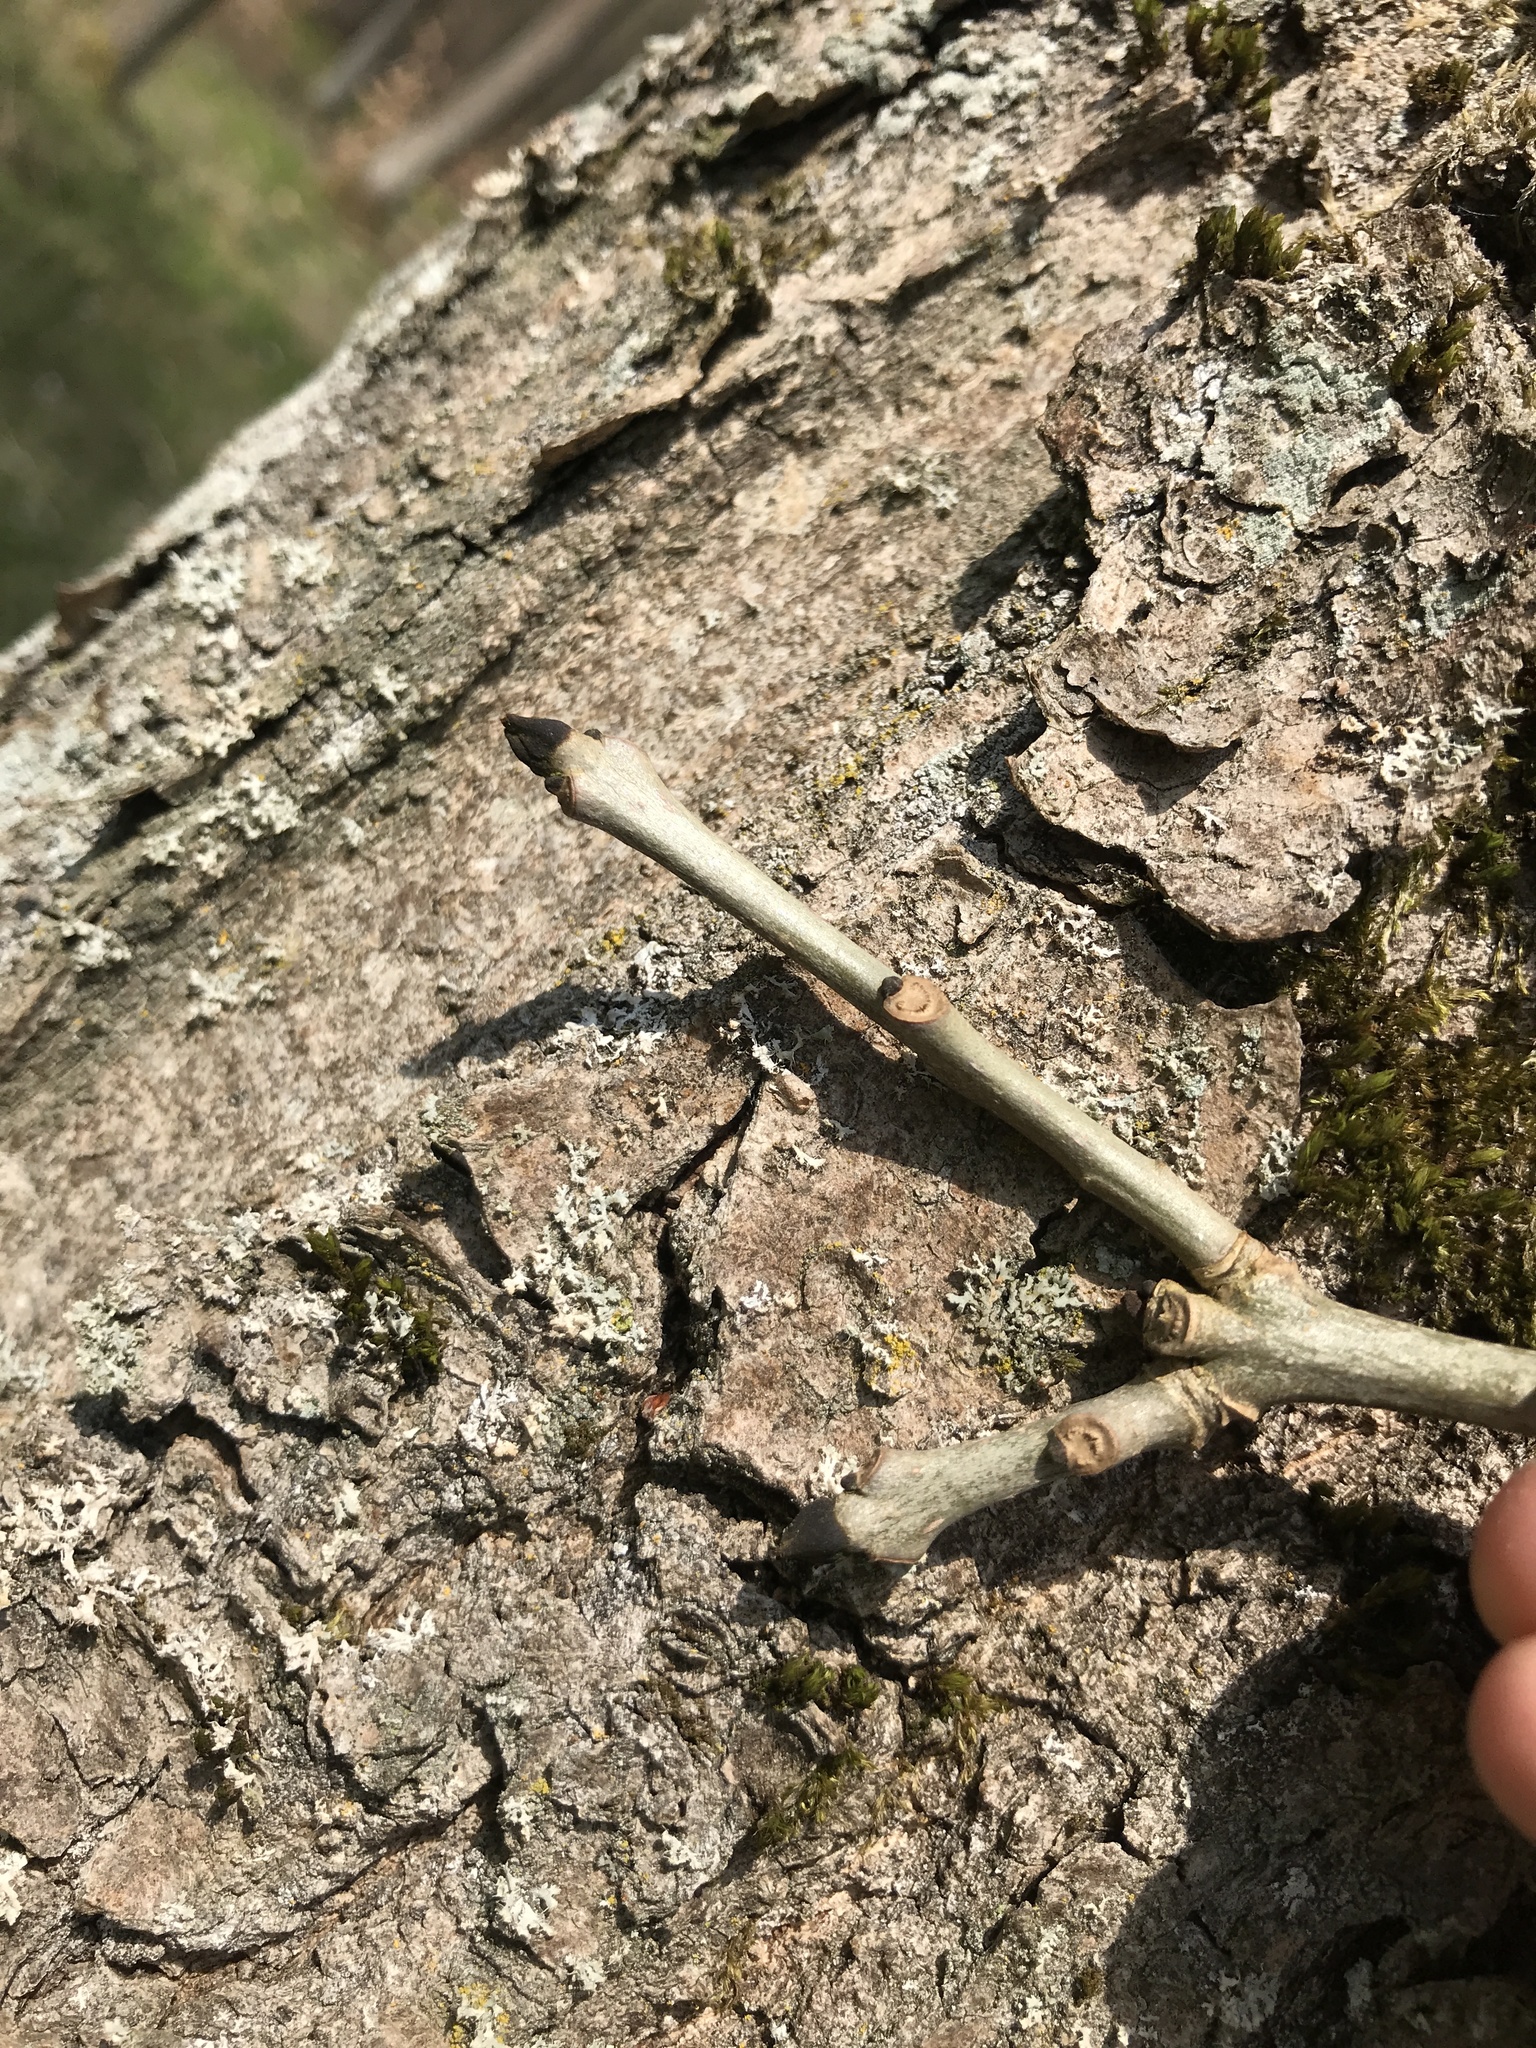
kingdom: Plantae
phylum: Tracheophyta
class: Magnoliopsida
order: Lamiales
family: Oleaceae
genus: Fraxinus
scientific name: Fraxinus excelsior
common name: European ash
